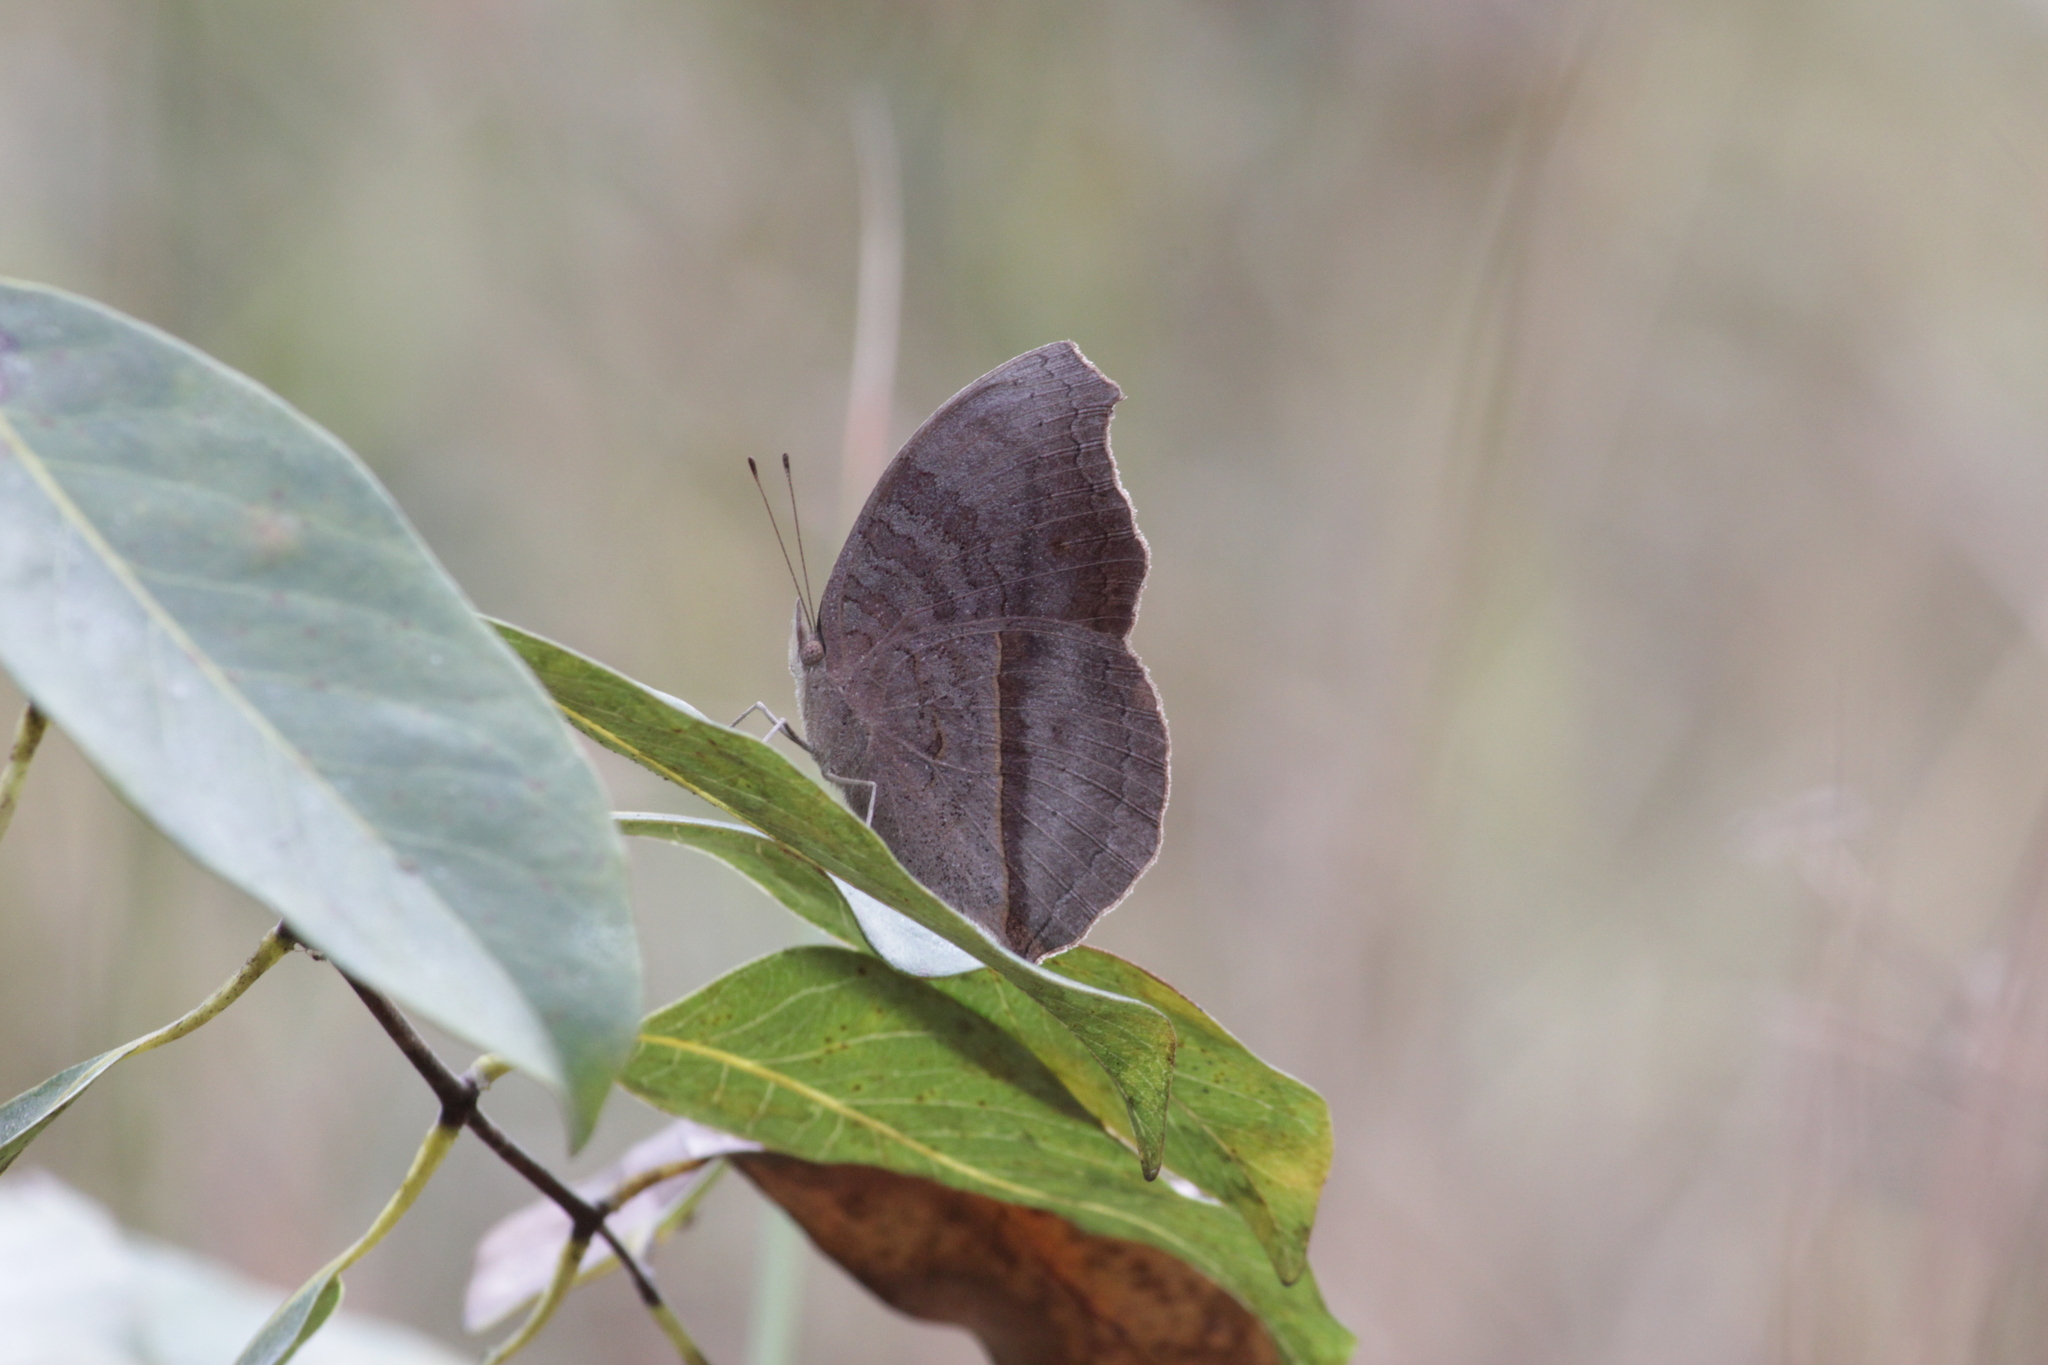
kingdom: Animalia
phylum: Arthropoda
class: Insecta
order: Lepidoptera
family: Nymphalidae
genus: Junonia
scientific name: Junonia artaxia
